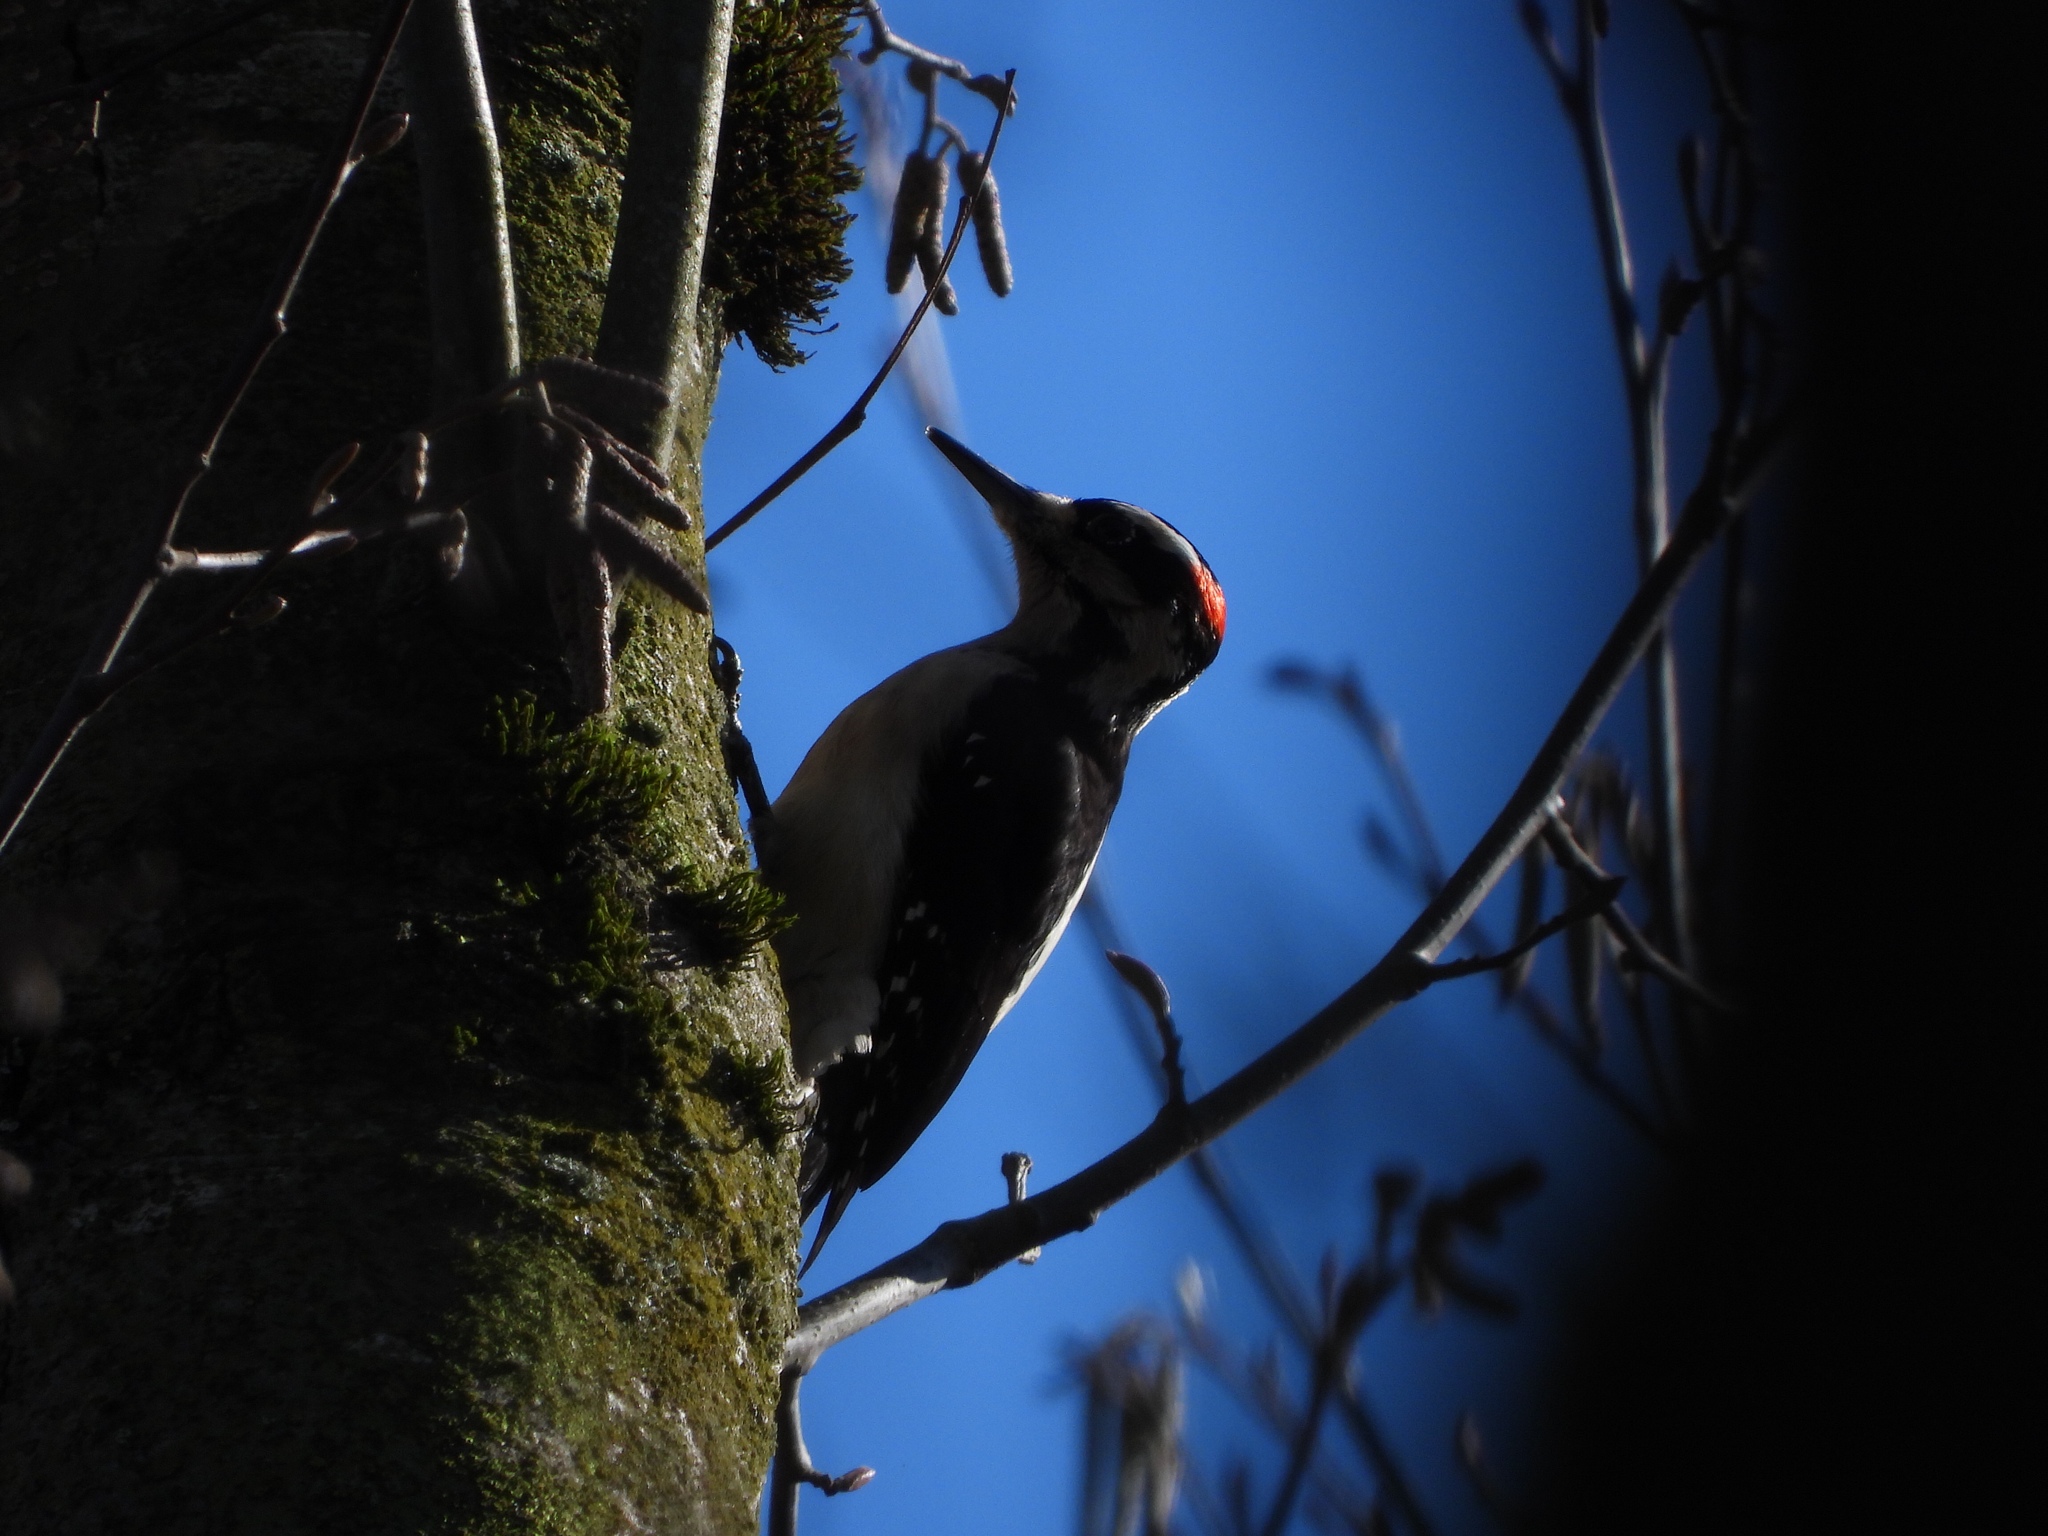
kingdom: Animalia
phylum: Chordata
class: Aves
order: Piciformes
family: Picidae
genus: Leuconotopicus
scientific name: Leuconotopicus villosus
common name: Hairy woodpecker
